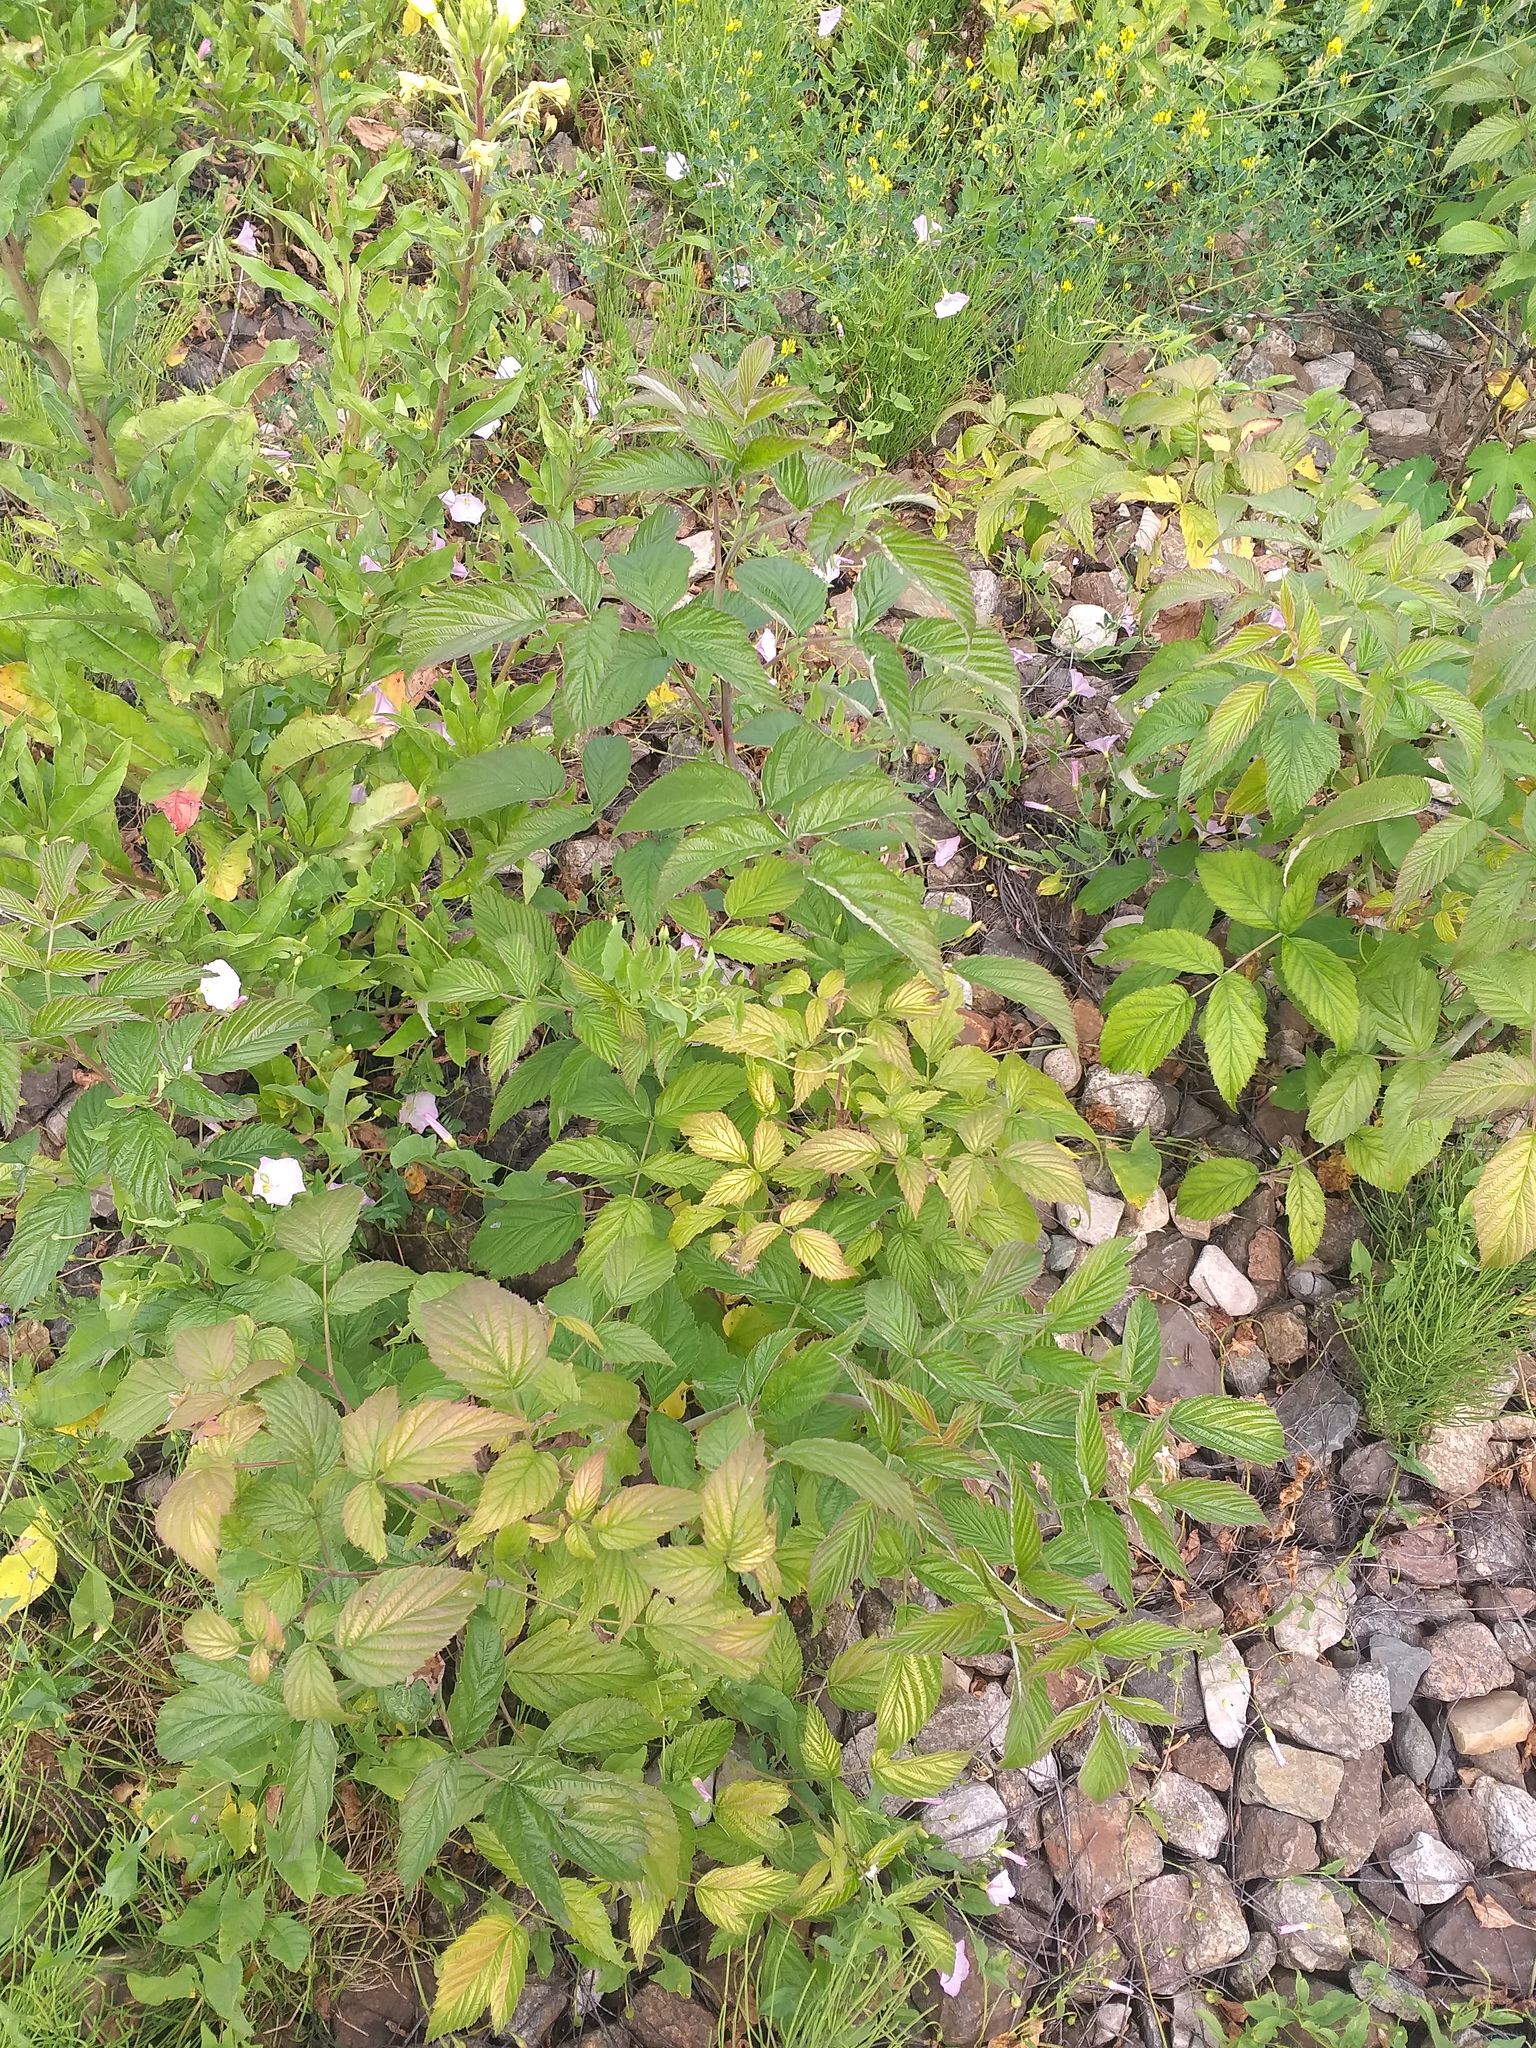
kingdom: Plantae
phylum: Tracheophyta
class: Magnoliopsida
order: Rosales
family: Rosaceae
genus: Rubus
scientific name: Rubus idaeus
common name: Raspberry
